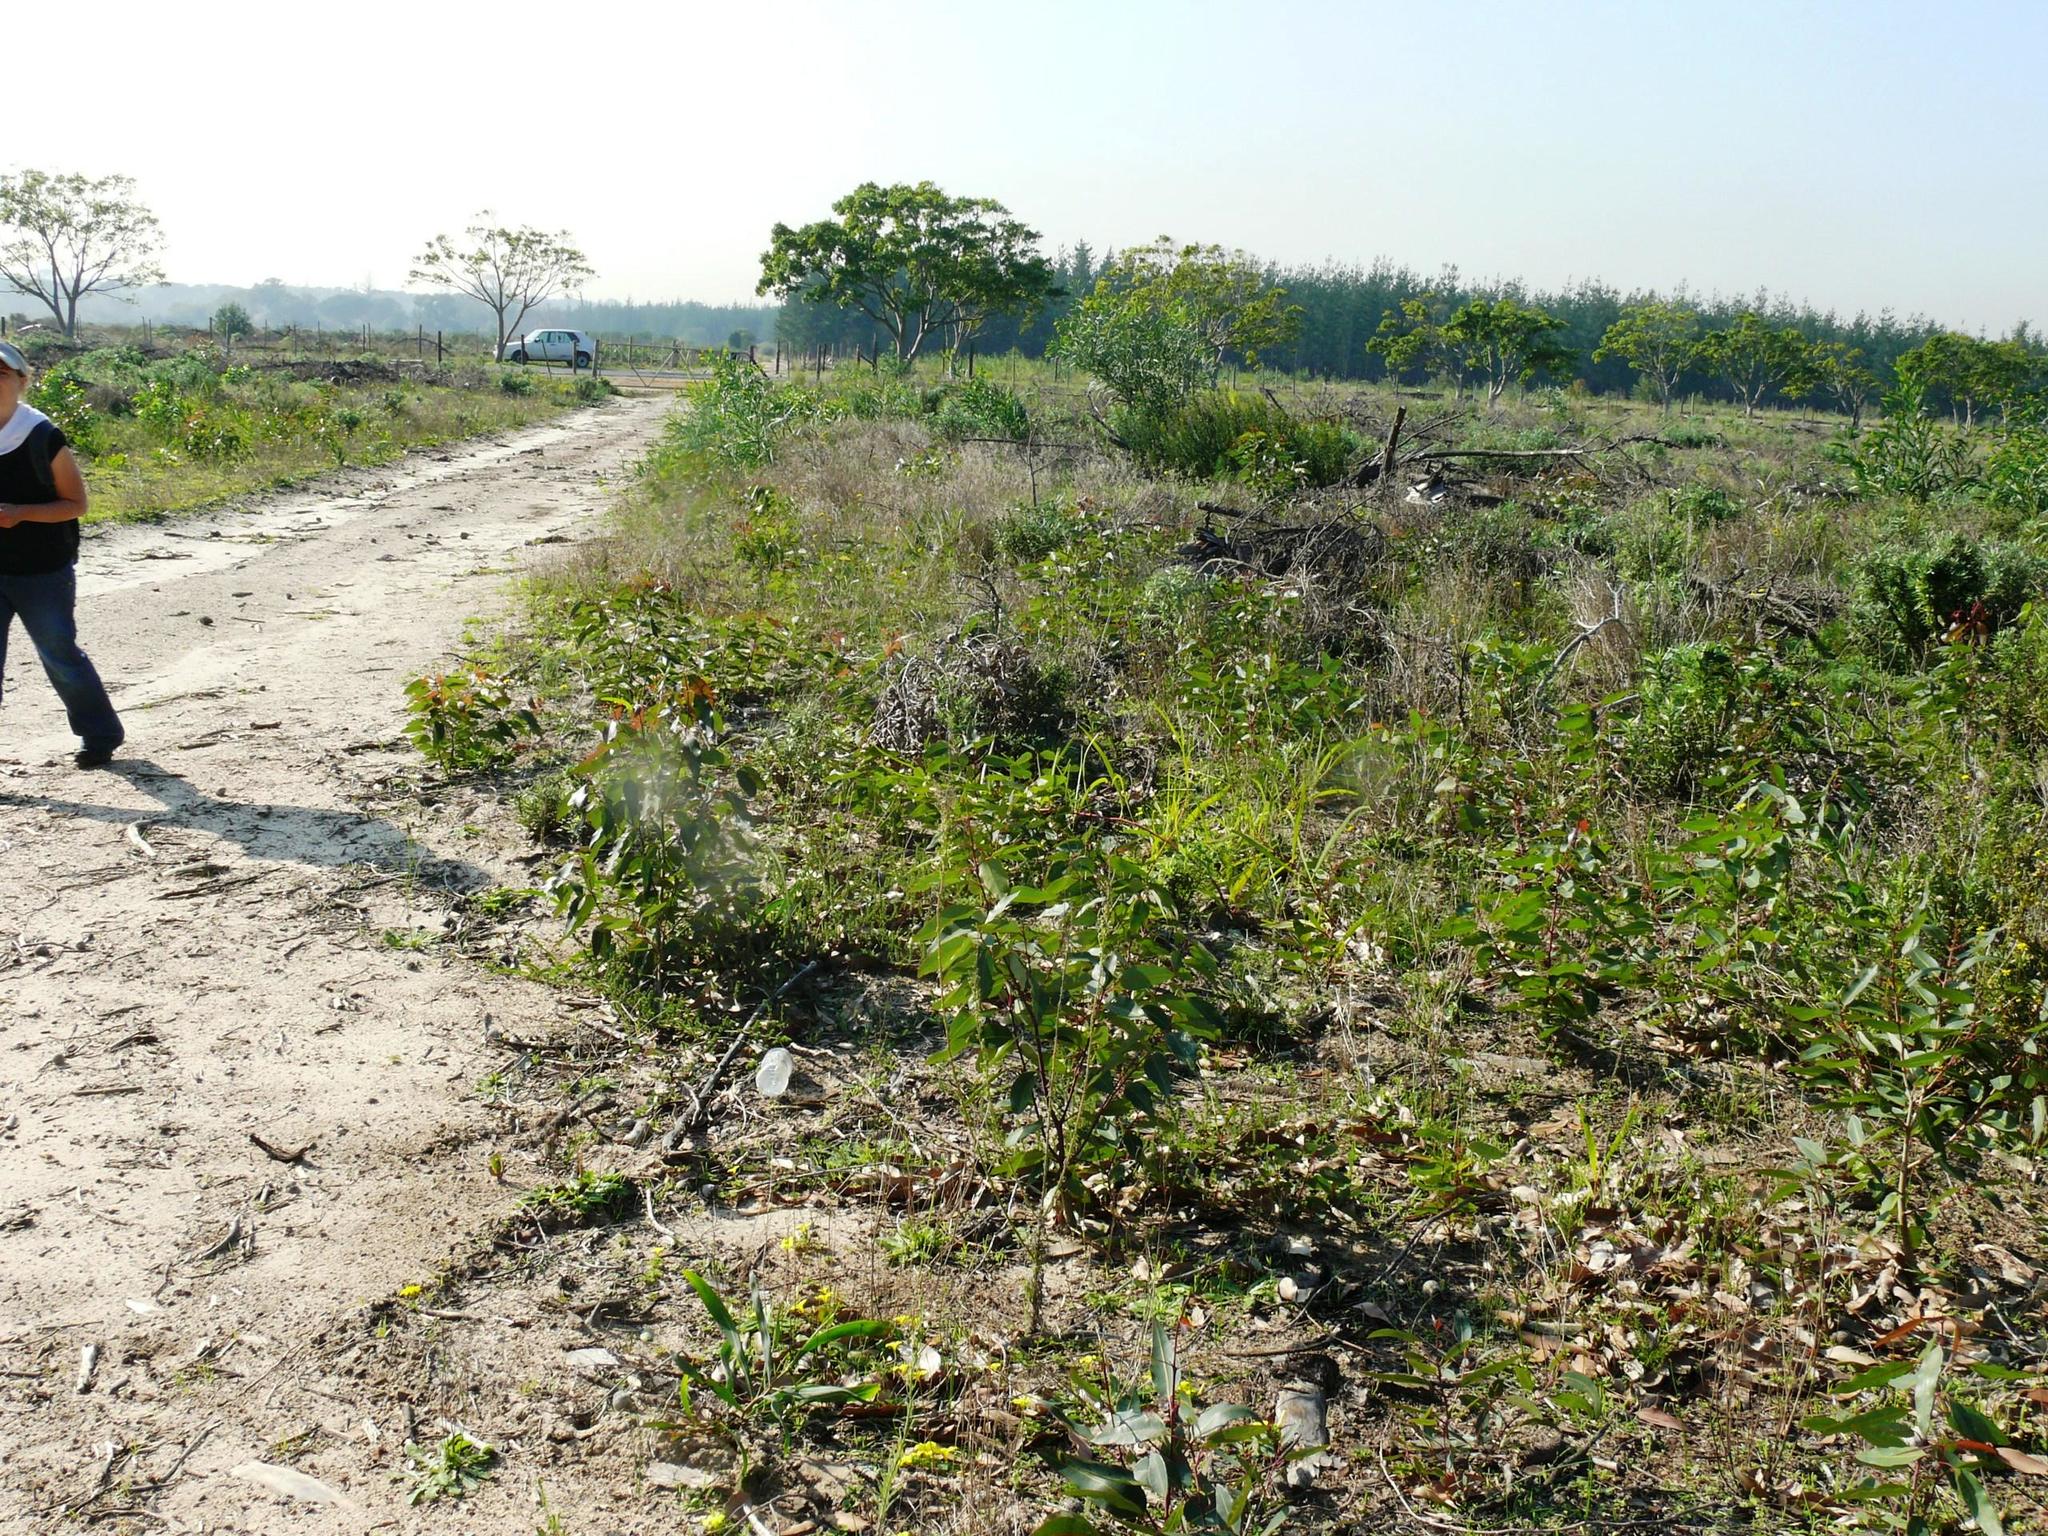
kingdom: Plantae
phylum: Tracheophyta
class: Magnoliopsida
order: Myrtales
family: Myrtaceae
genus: Corymbia
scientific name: Corymbia ficifolia
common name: Redflower gum
